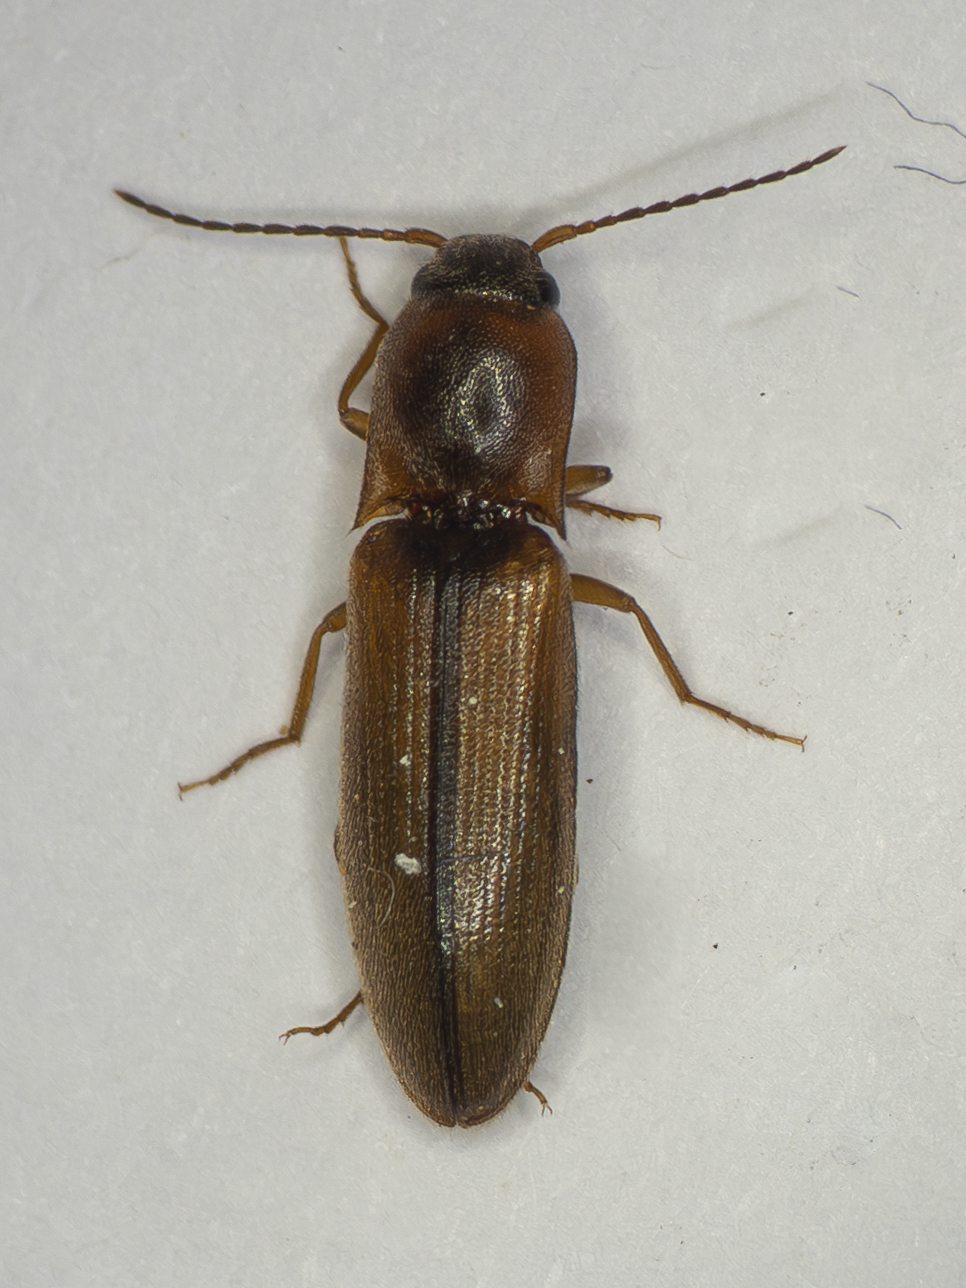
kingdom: Animalia
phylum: Arthropoda
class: Insecta
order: Coleoptera
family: Elateridae
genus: Dalopius
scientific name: Dalopius marginatus
